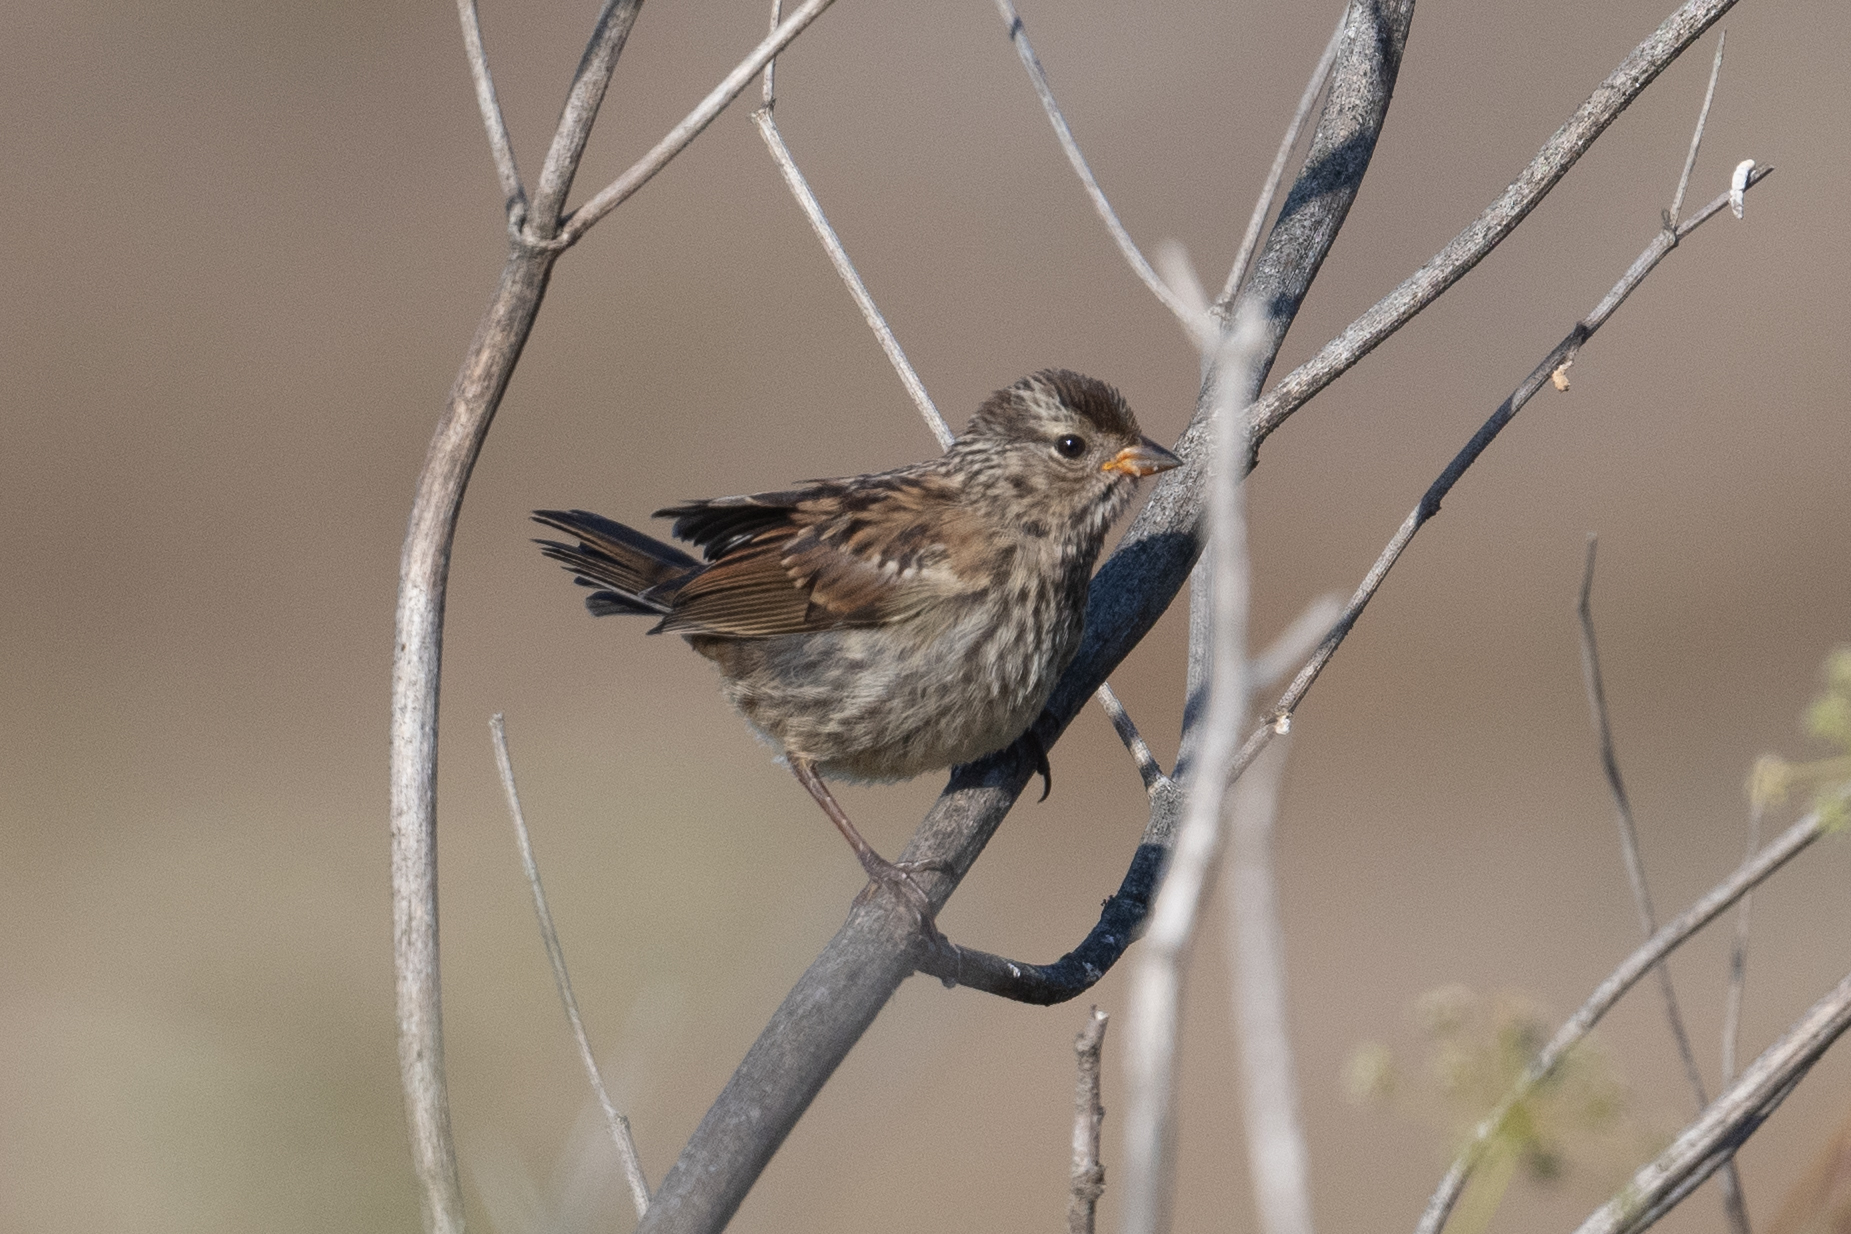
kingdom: Animalia
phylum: Chordata
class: Aves
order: Passeriformes
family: Passerellidae
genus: Zonotrichia
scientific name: Zonotrichia leucophrys
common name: White-crowned sparrow
